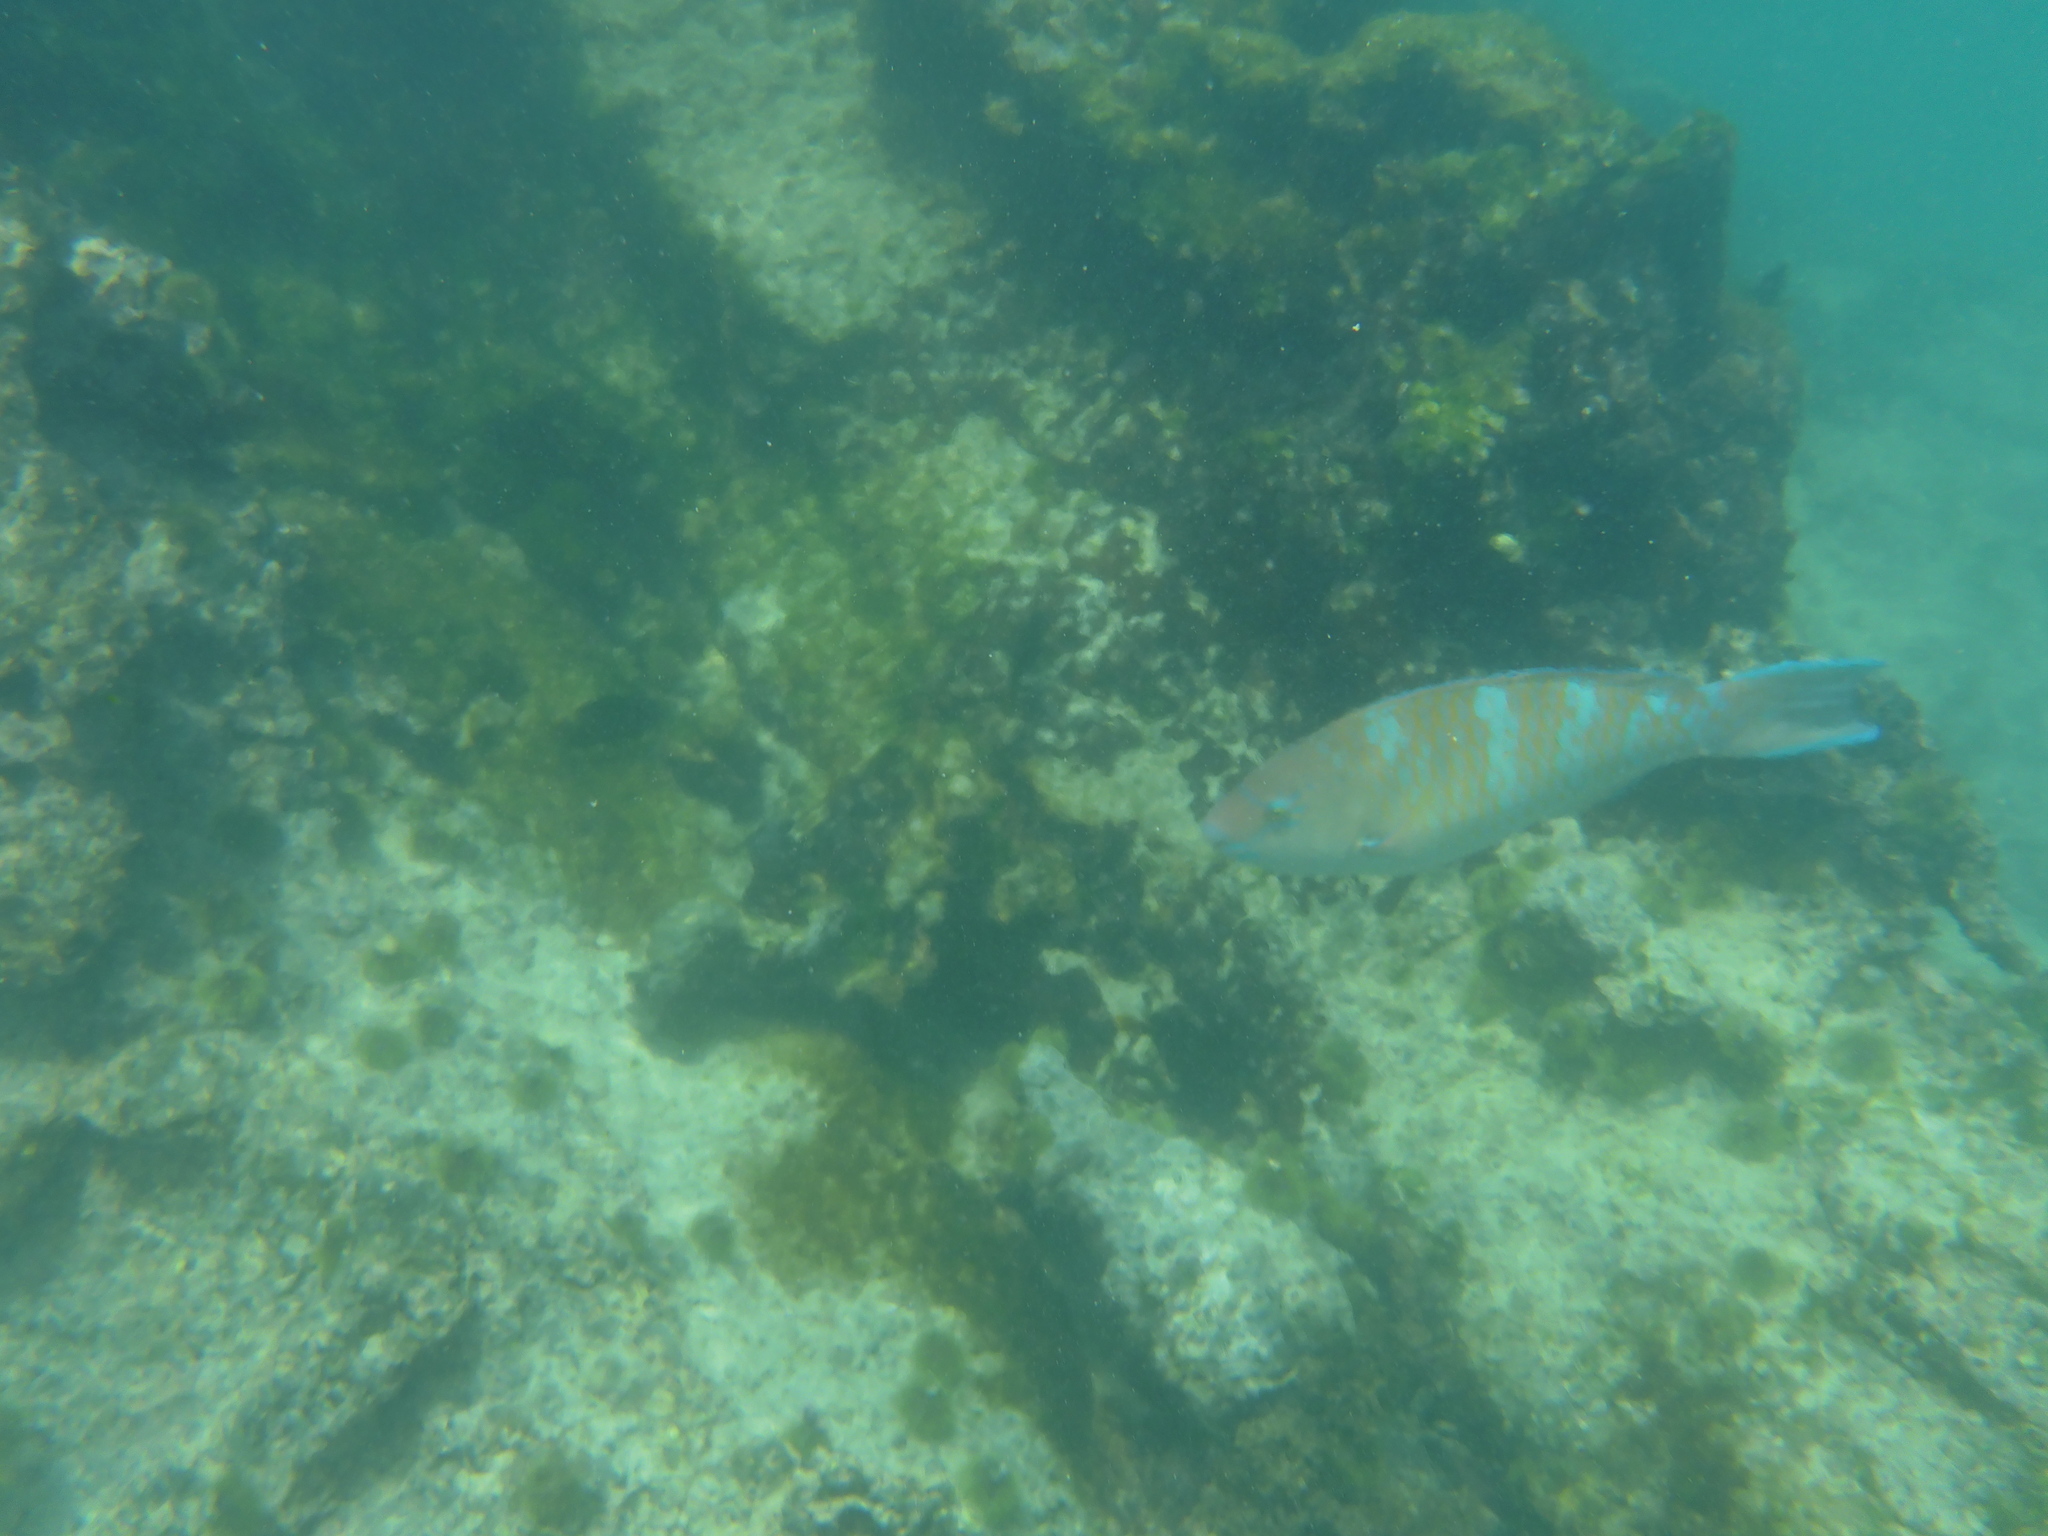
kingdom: Animalia
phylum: Chordata
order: Perciformes
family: Scaridae
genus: Scarus
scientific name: Scarus ghobban
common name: Blue-barred parrotfish
